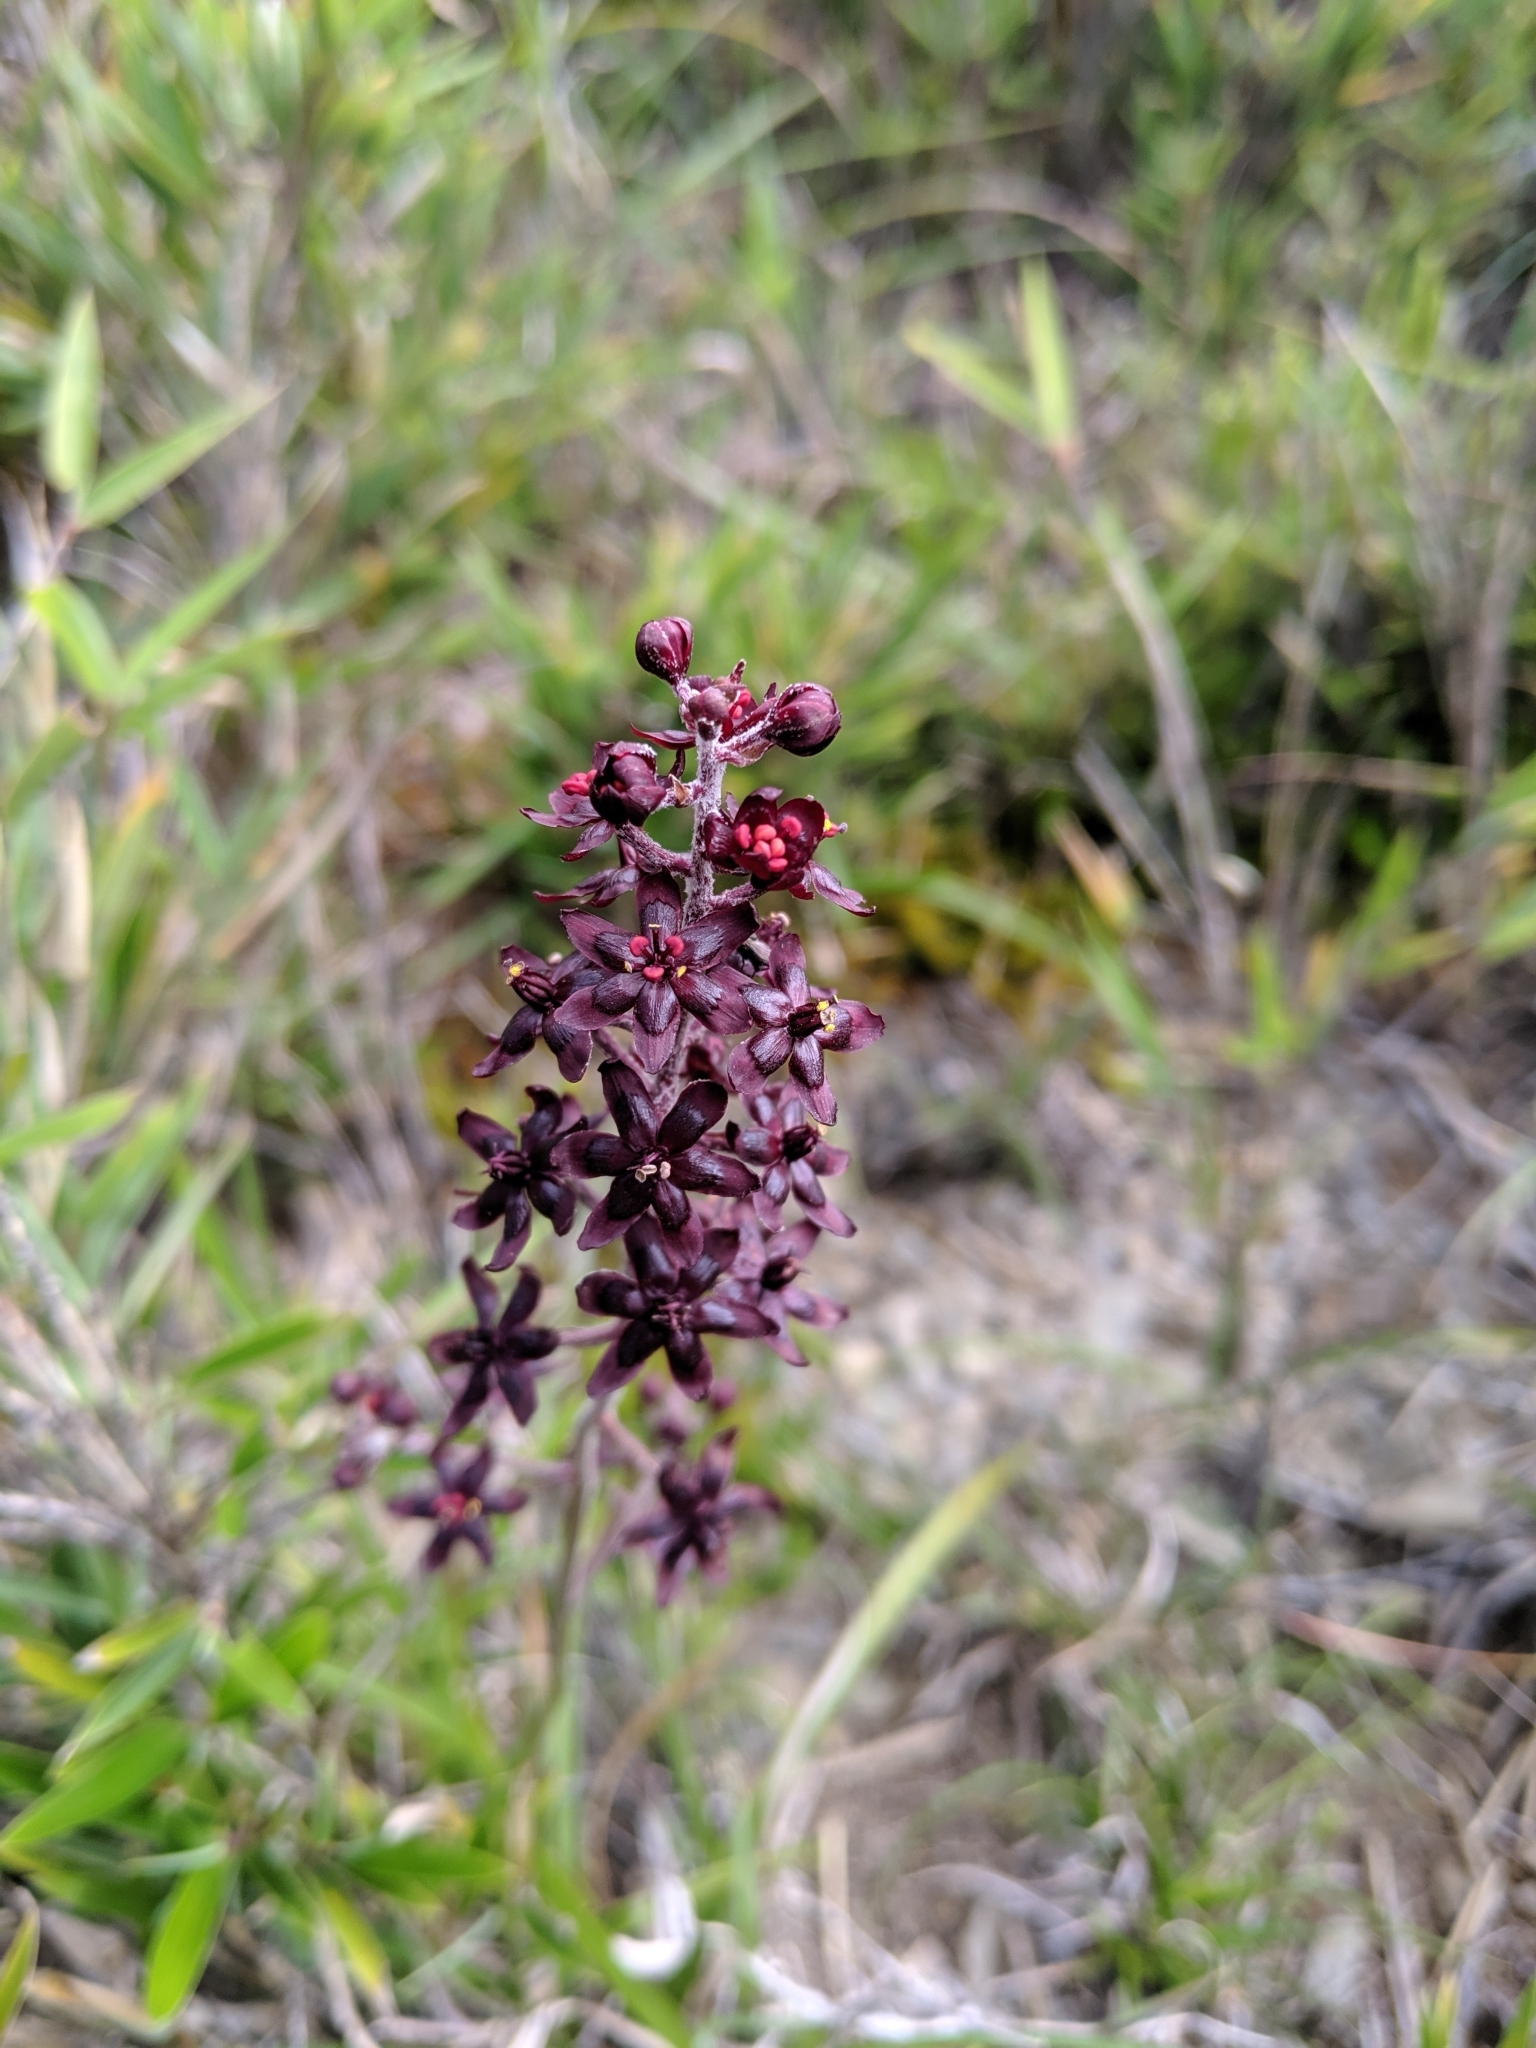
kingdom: Plantae
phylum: Tracheophyta
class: Liliopsida
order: Liliales
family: Melanthiaceae
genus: Veratrum
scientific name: Veratrum formosanum
